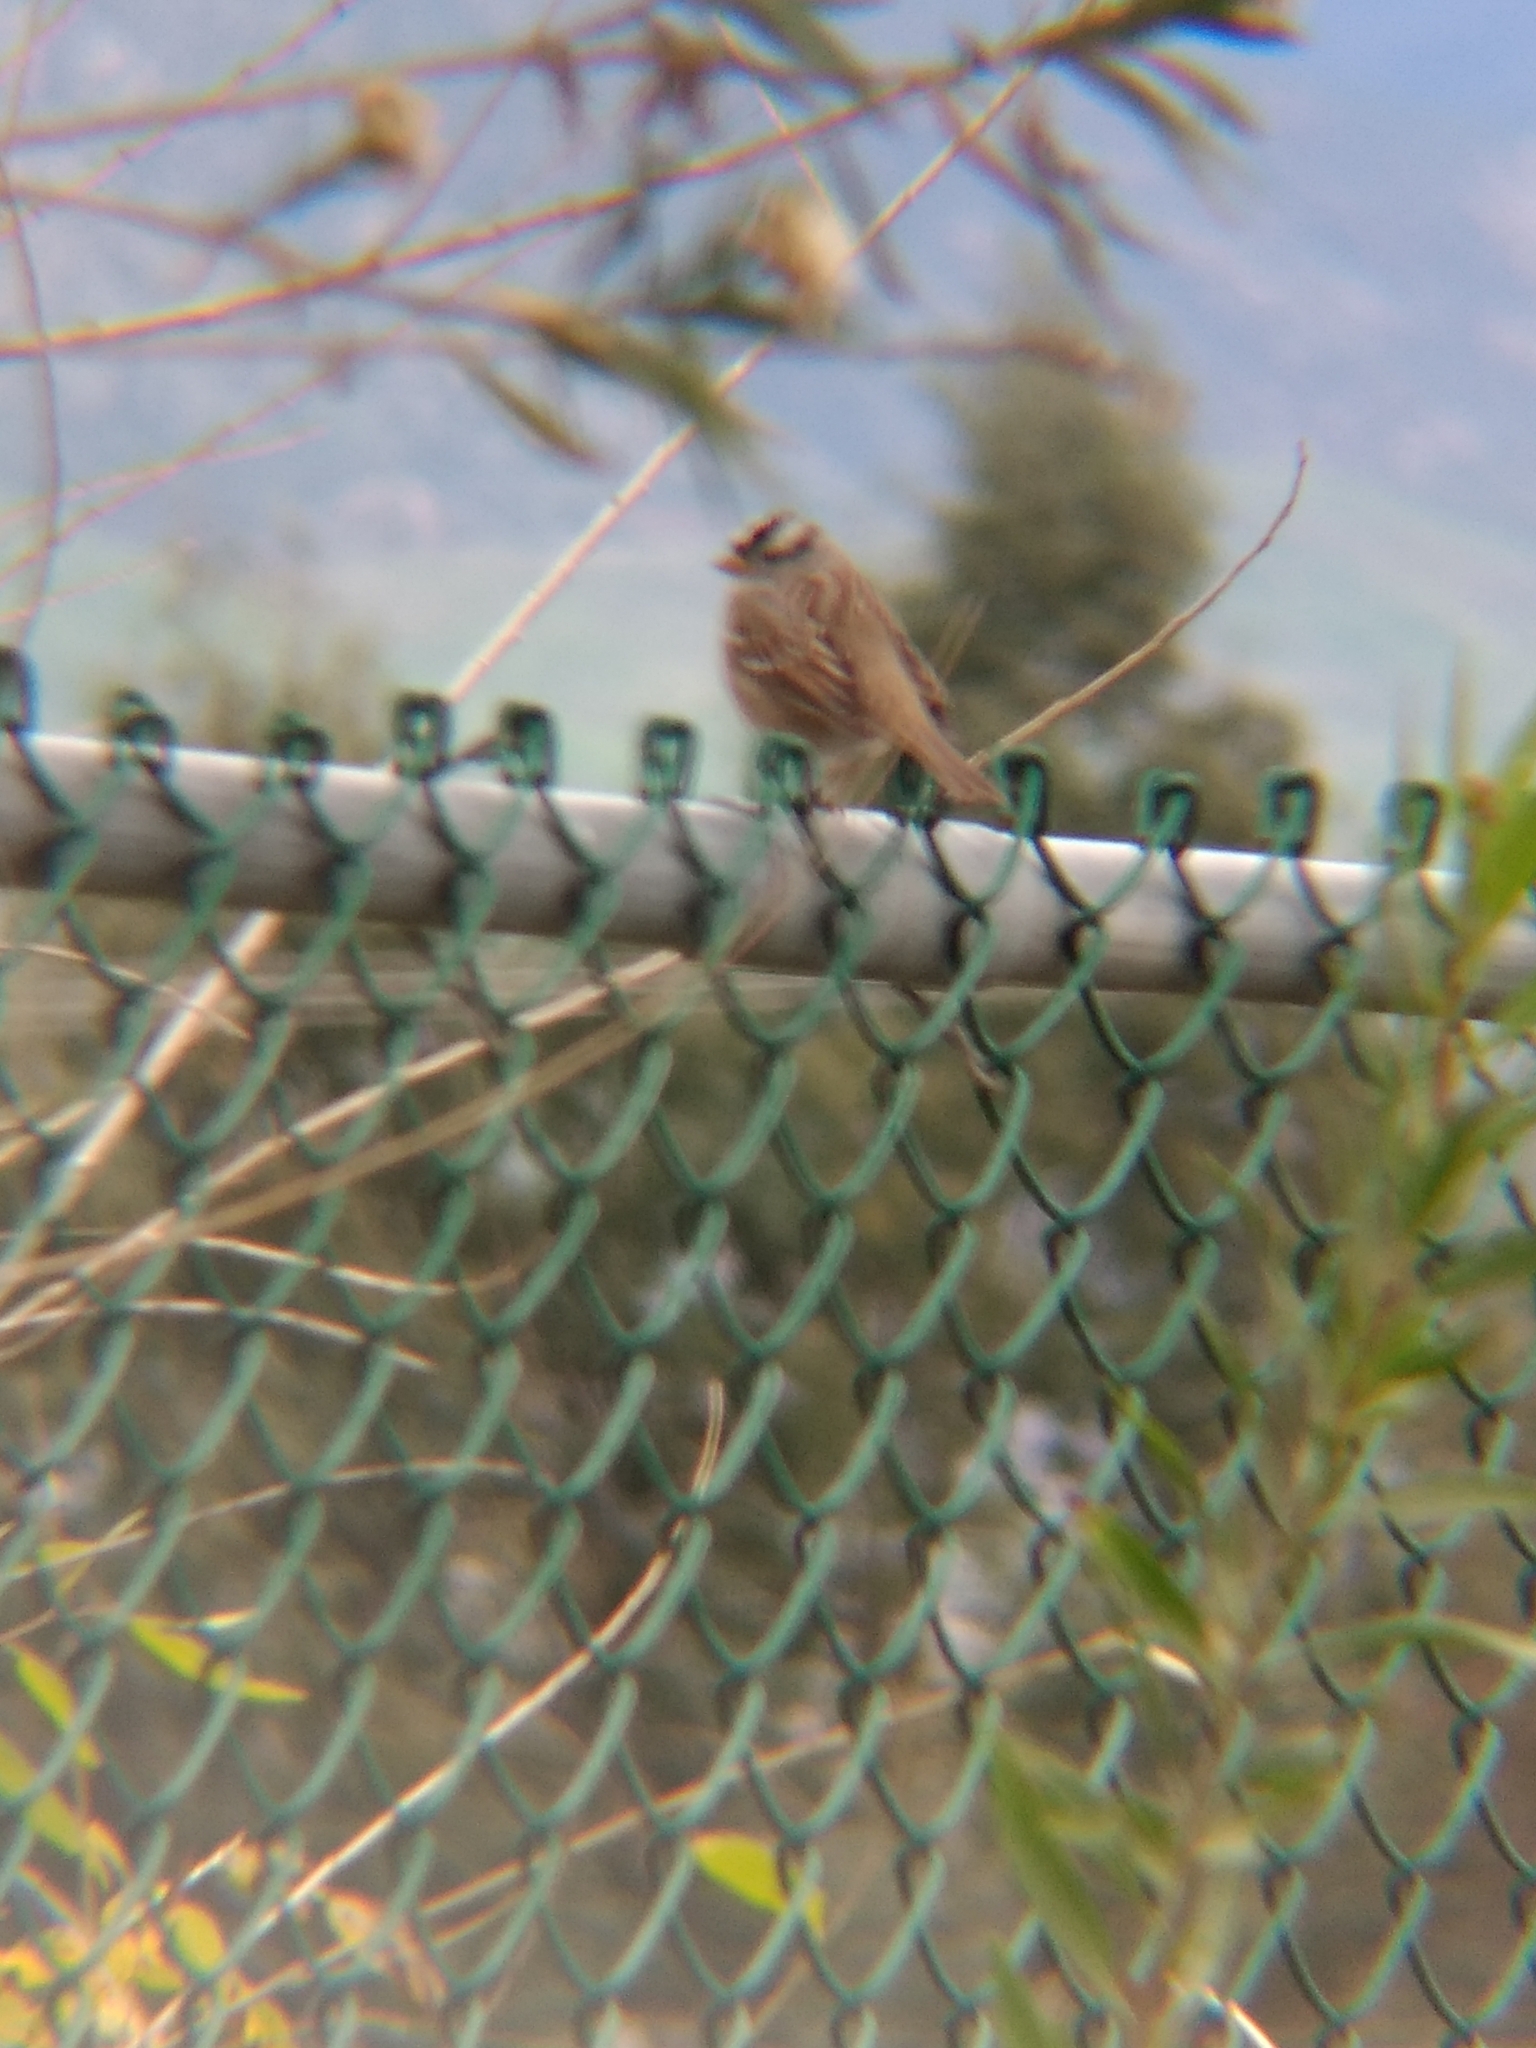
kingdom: Animalia
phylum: Chordata
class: Aves
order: Passeriformes
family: Passerellidae
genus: Zonotrichia
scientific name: Zonotrichia leucophrys
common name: White-crowned sparrow
